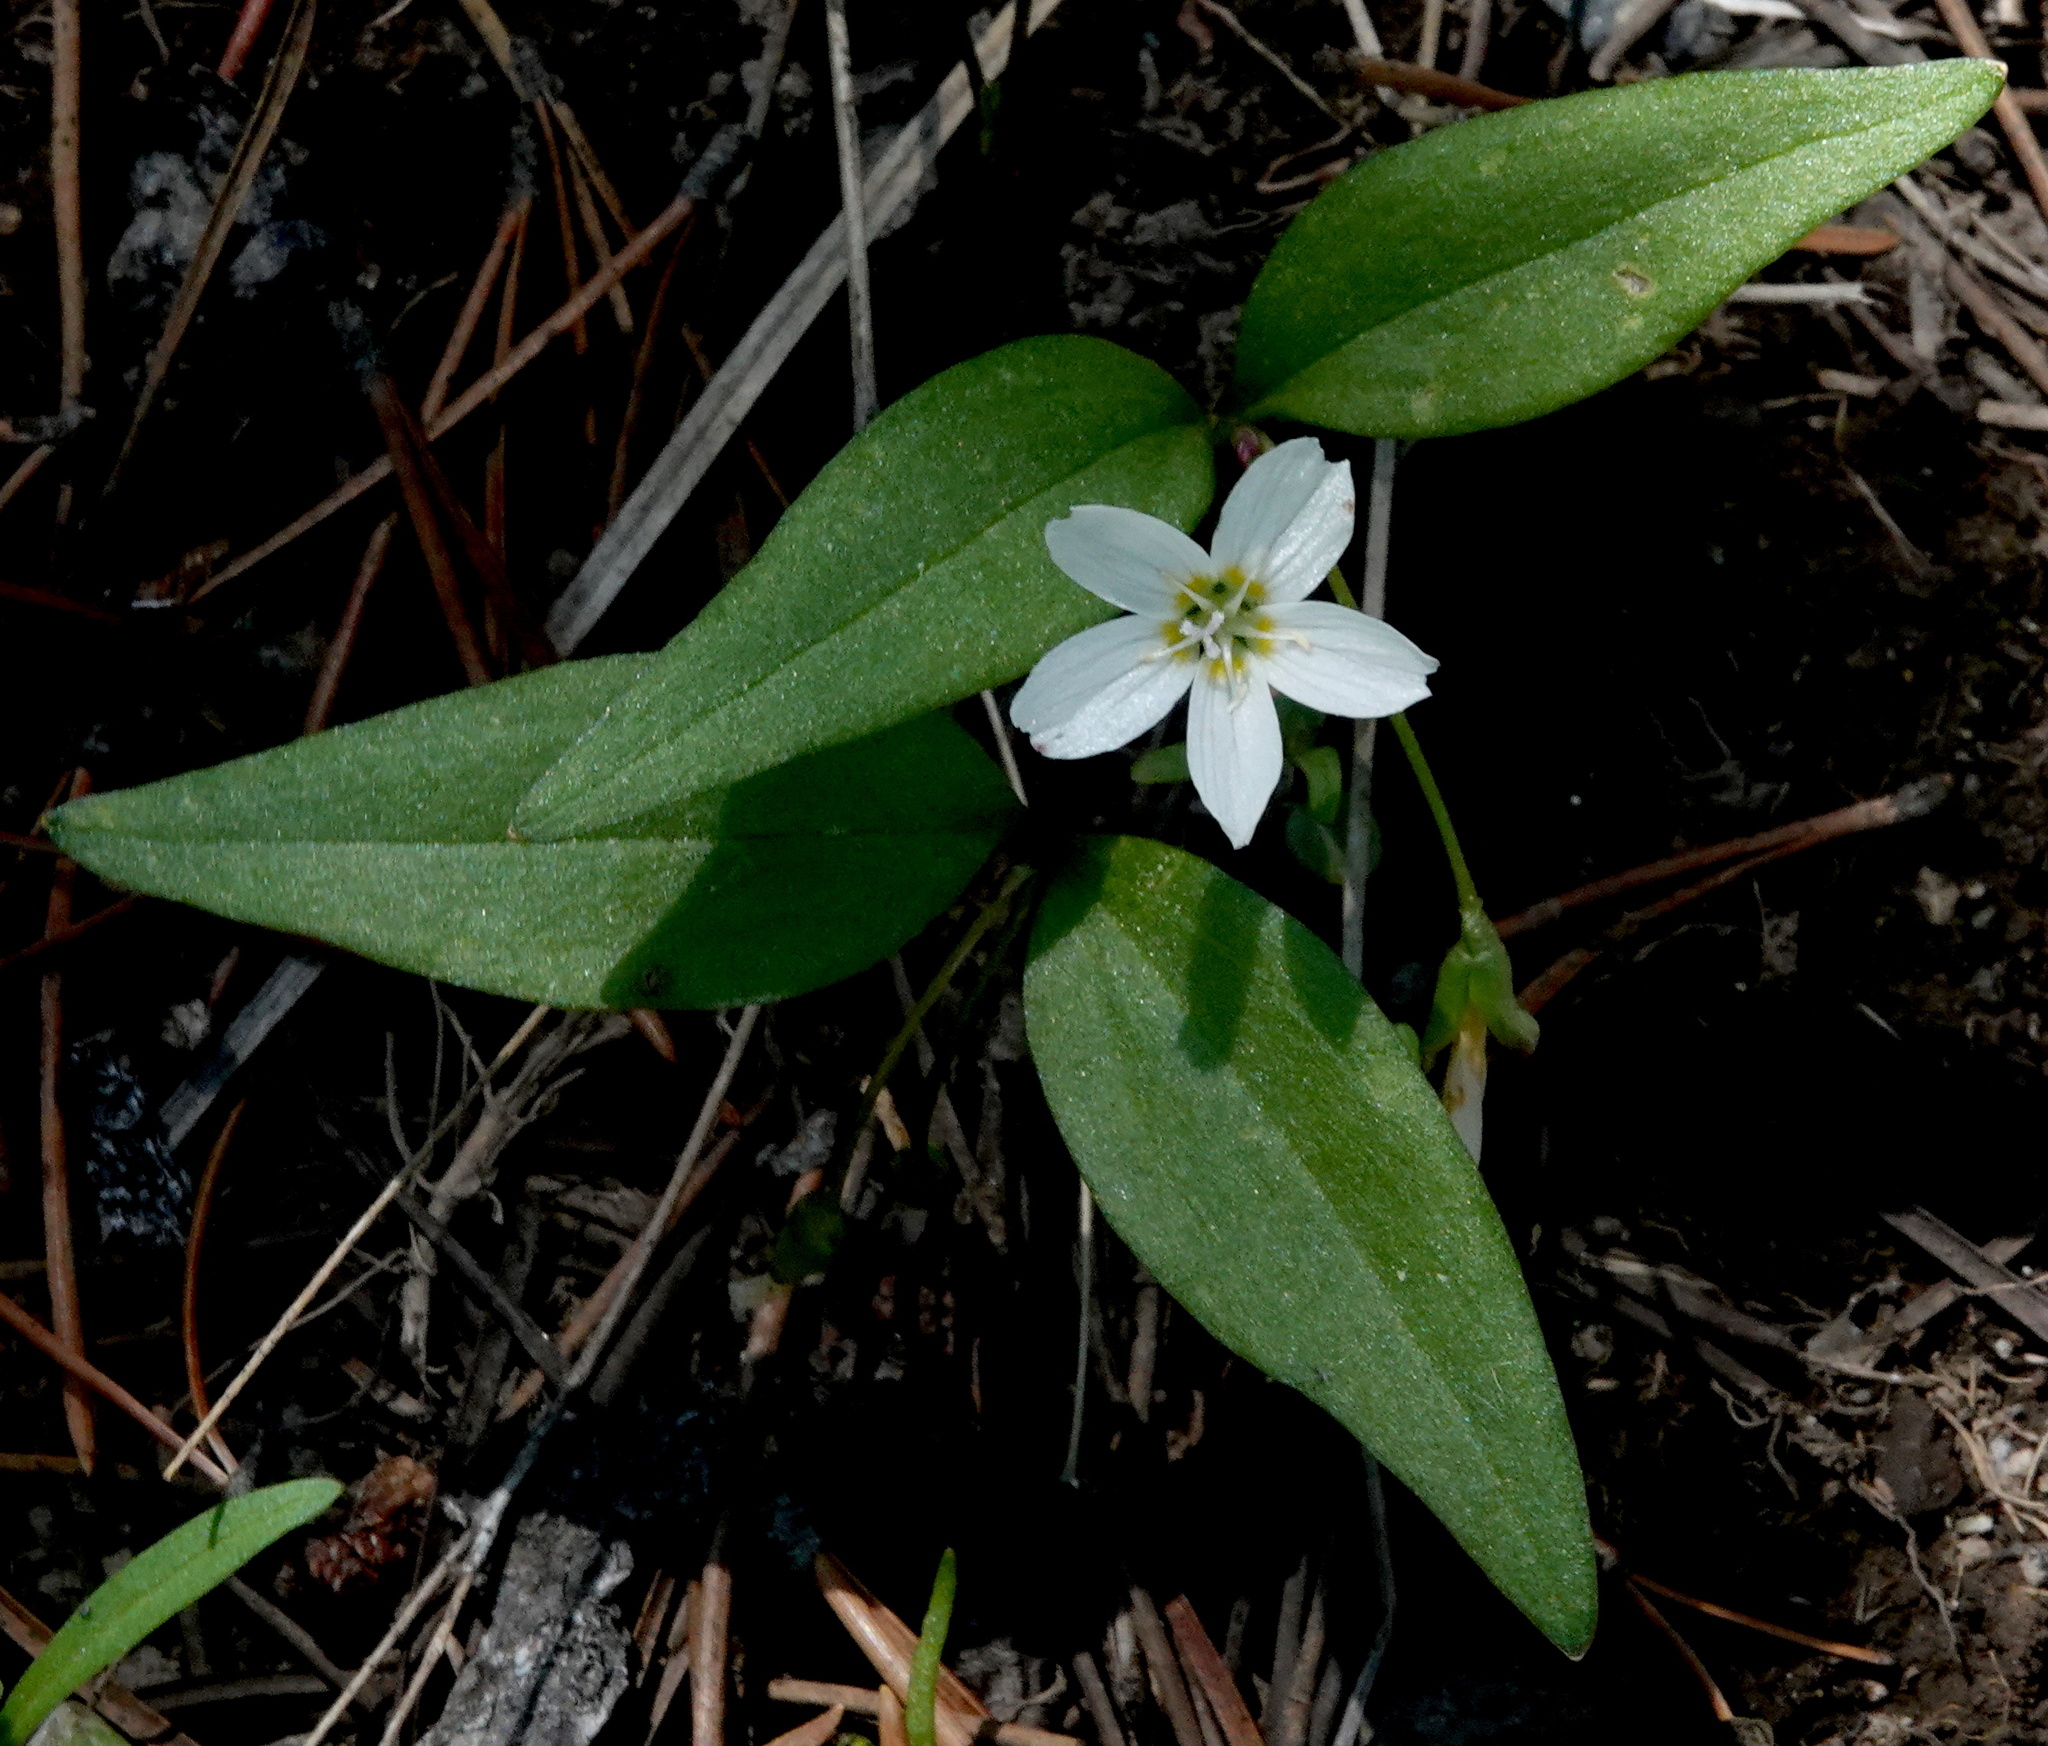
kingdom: Plantae
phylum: Tracheophyta
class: Magnoliopsida
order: Caryophyllales
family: Montiaceae
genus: Claytonia
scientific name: Claytonia lanceolata
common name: Western spring-beauty
